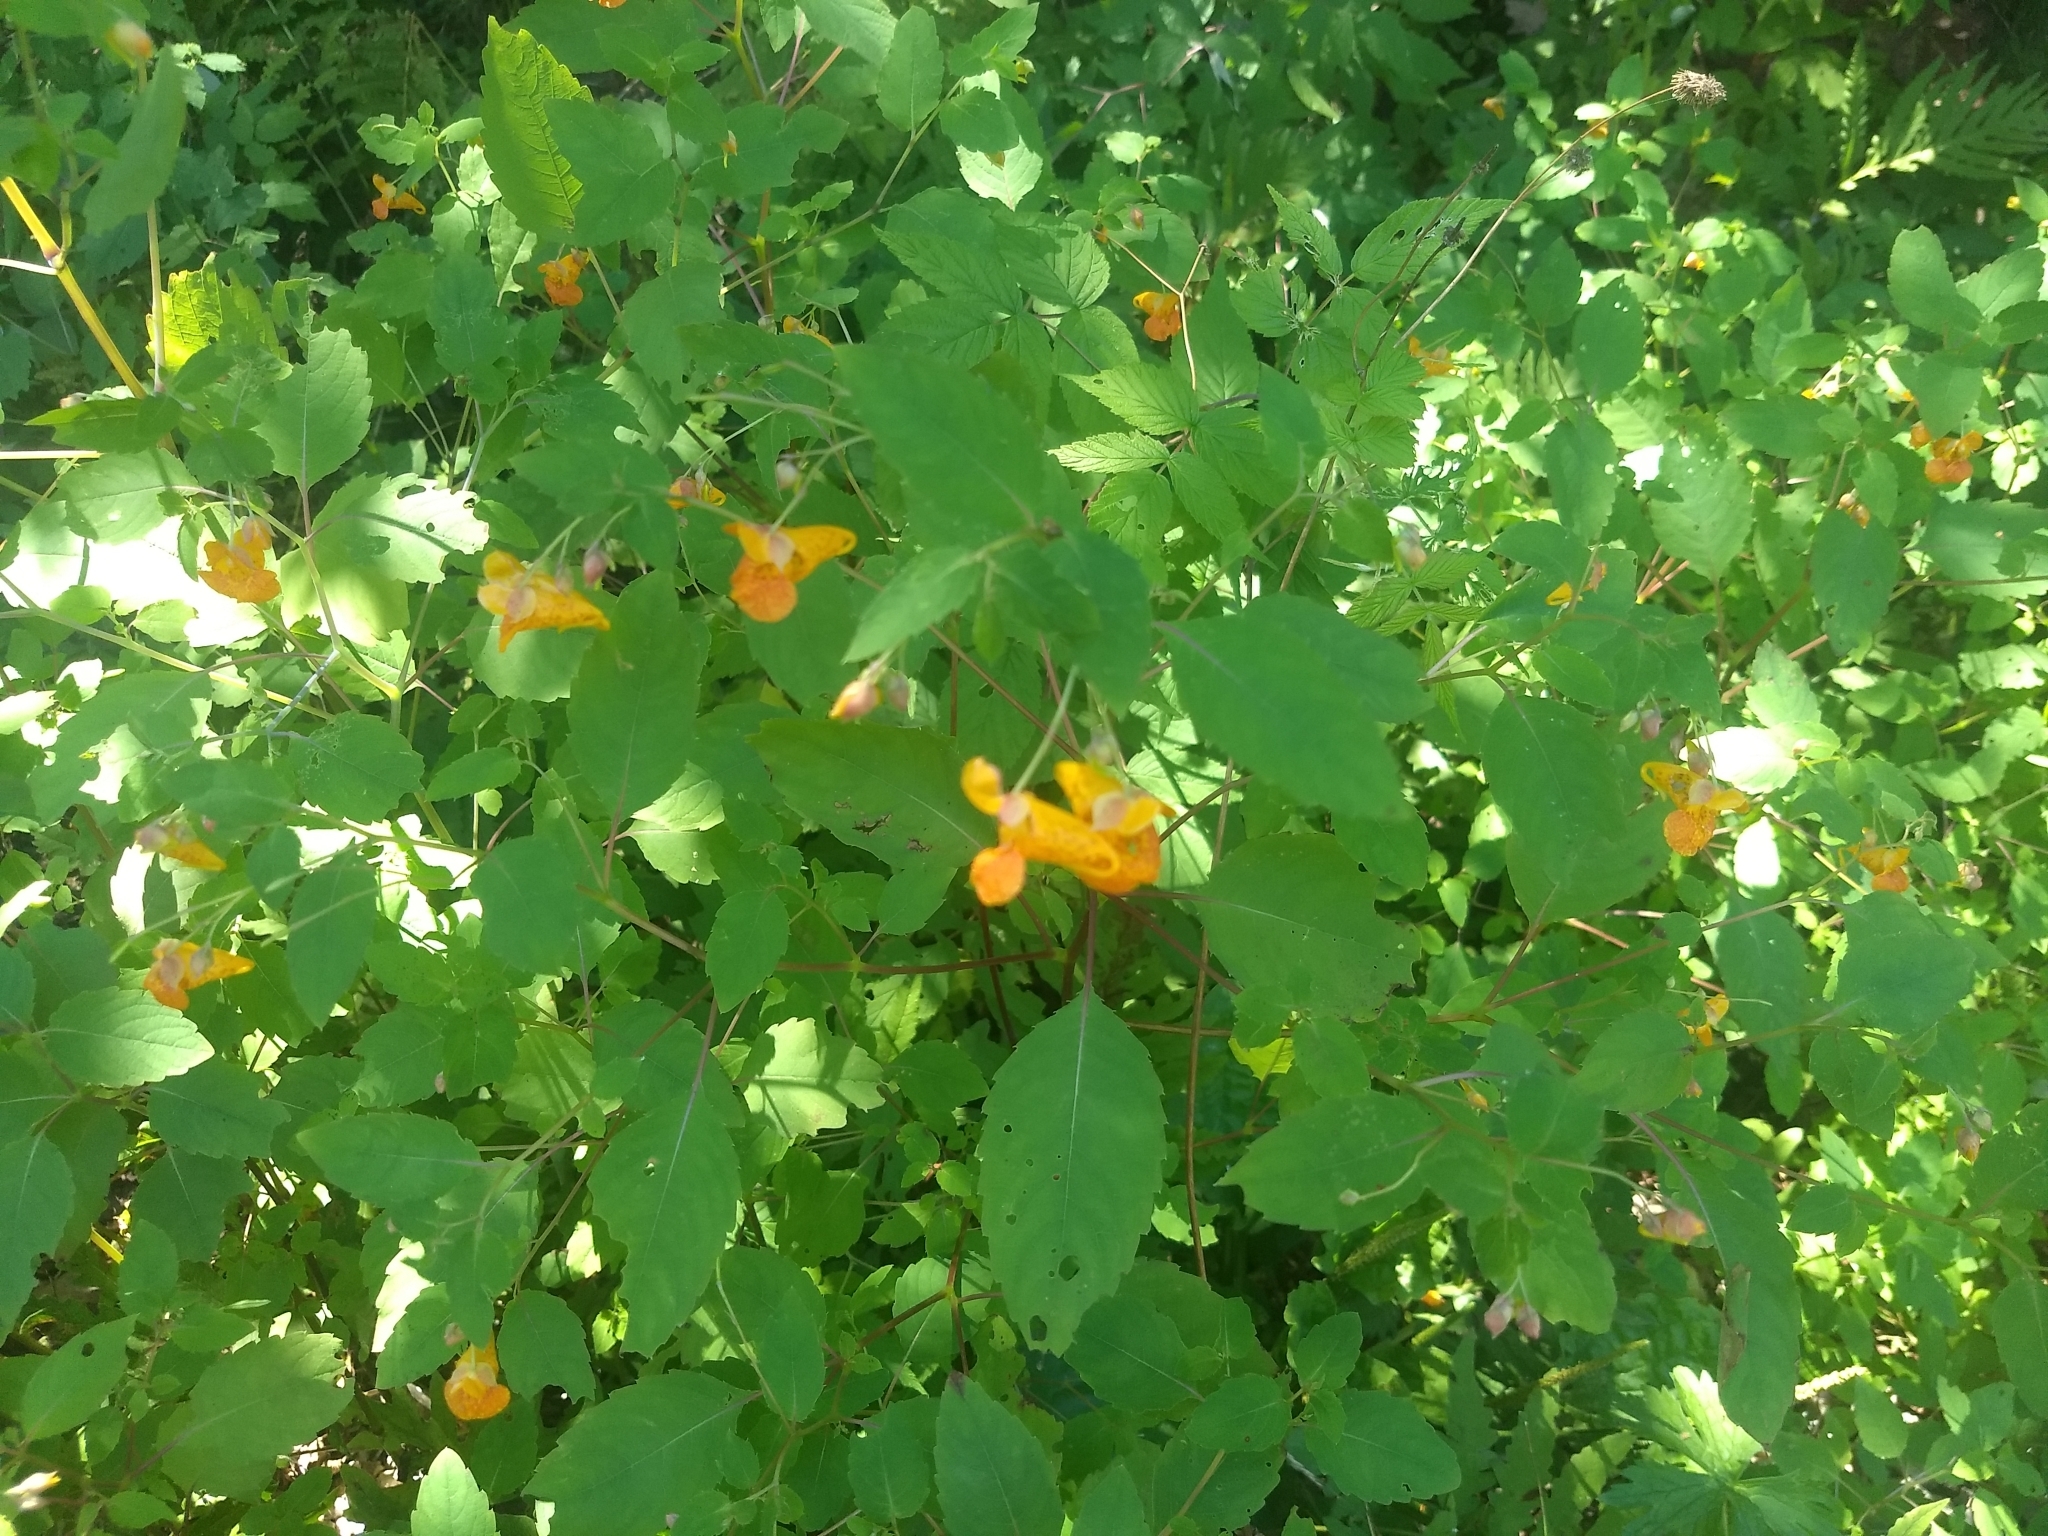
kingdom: Plantae
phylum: Tracheophyta
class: Magnoliopsida
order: Ericales
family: Balsaminaceae
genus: Impatiens
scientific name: Impatiens capensis
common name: Orange balsam
